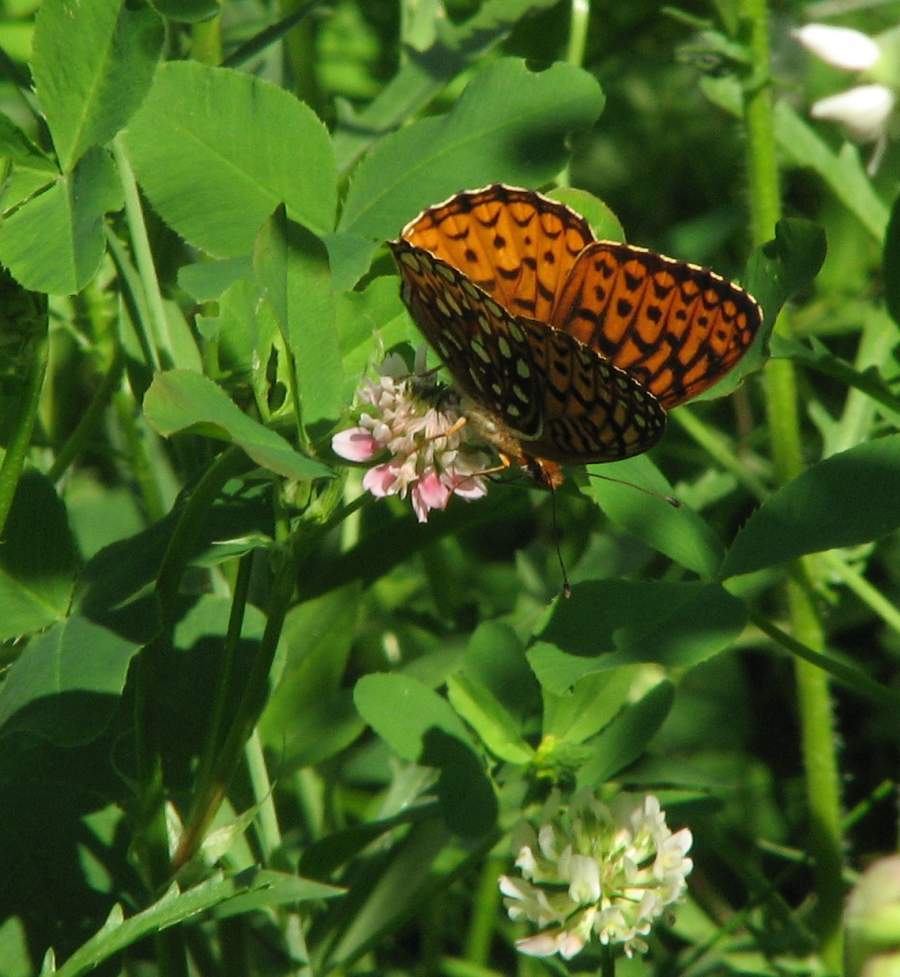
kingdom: Animalia
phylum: Arthropoda
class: Insecta
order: Lepidoptera
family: Nymphalidae
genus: Speyeria
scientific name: Speyeria atlantis
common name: Atlantis fritillary
